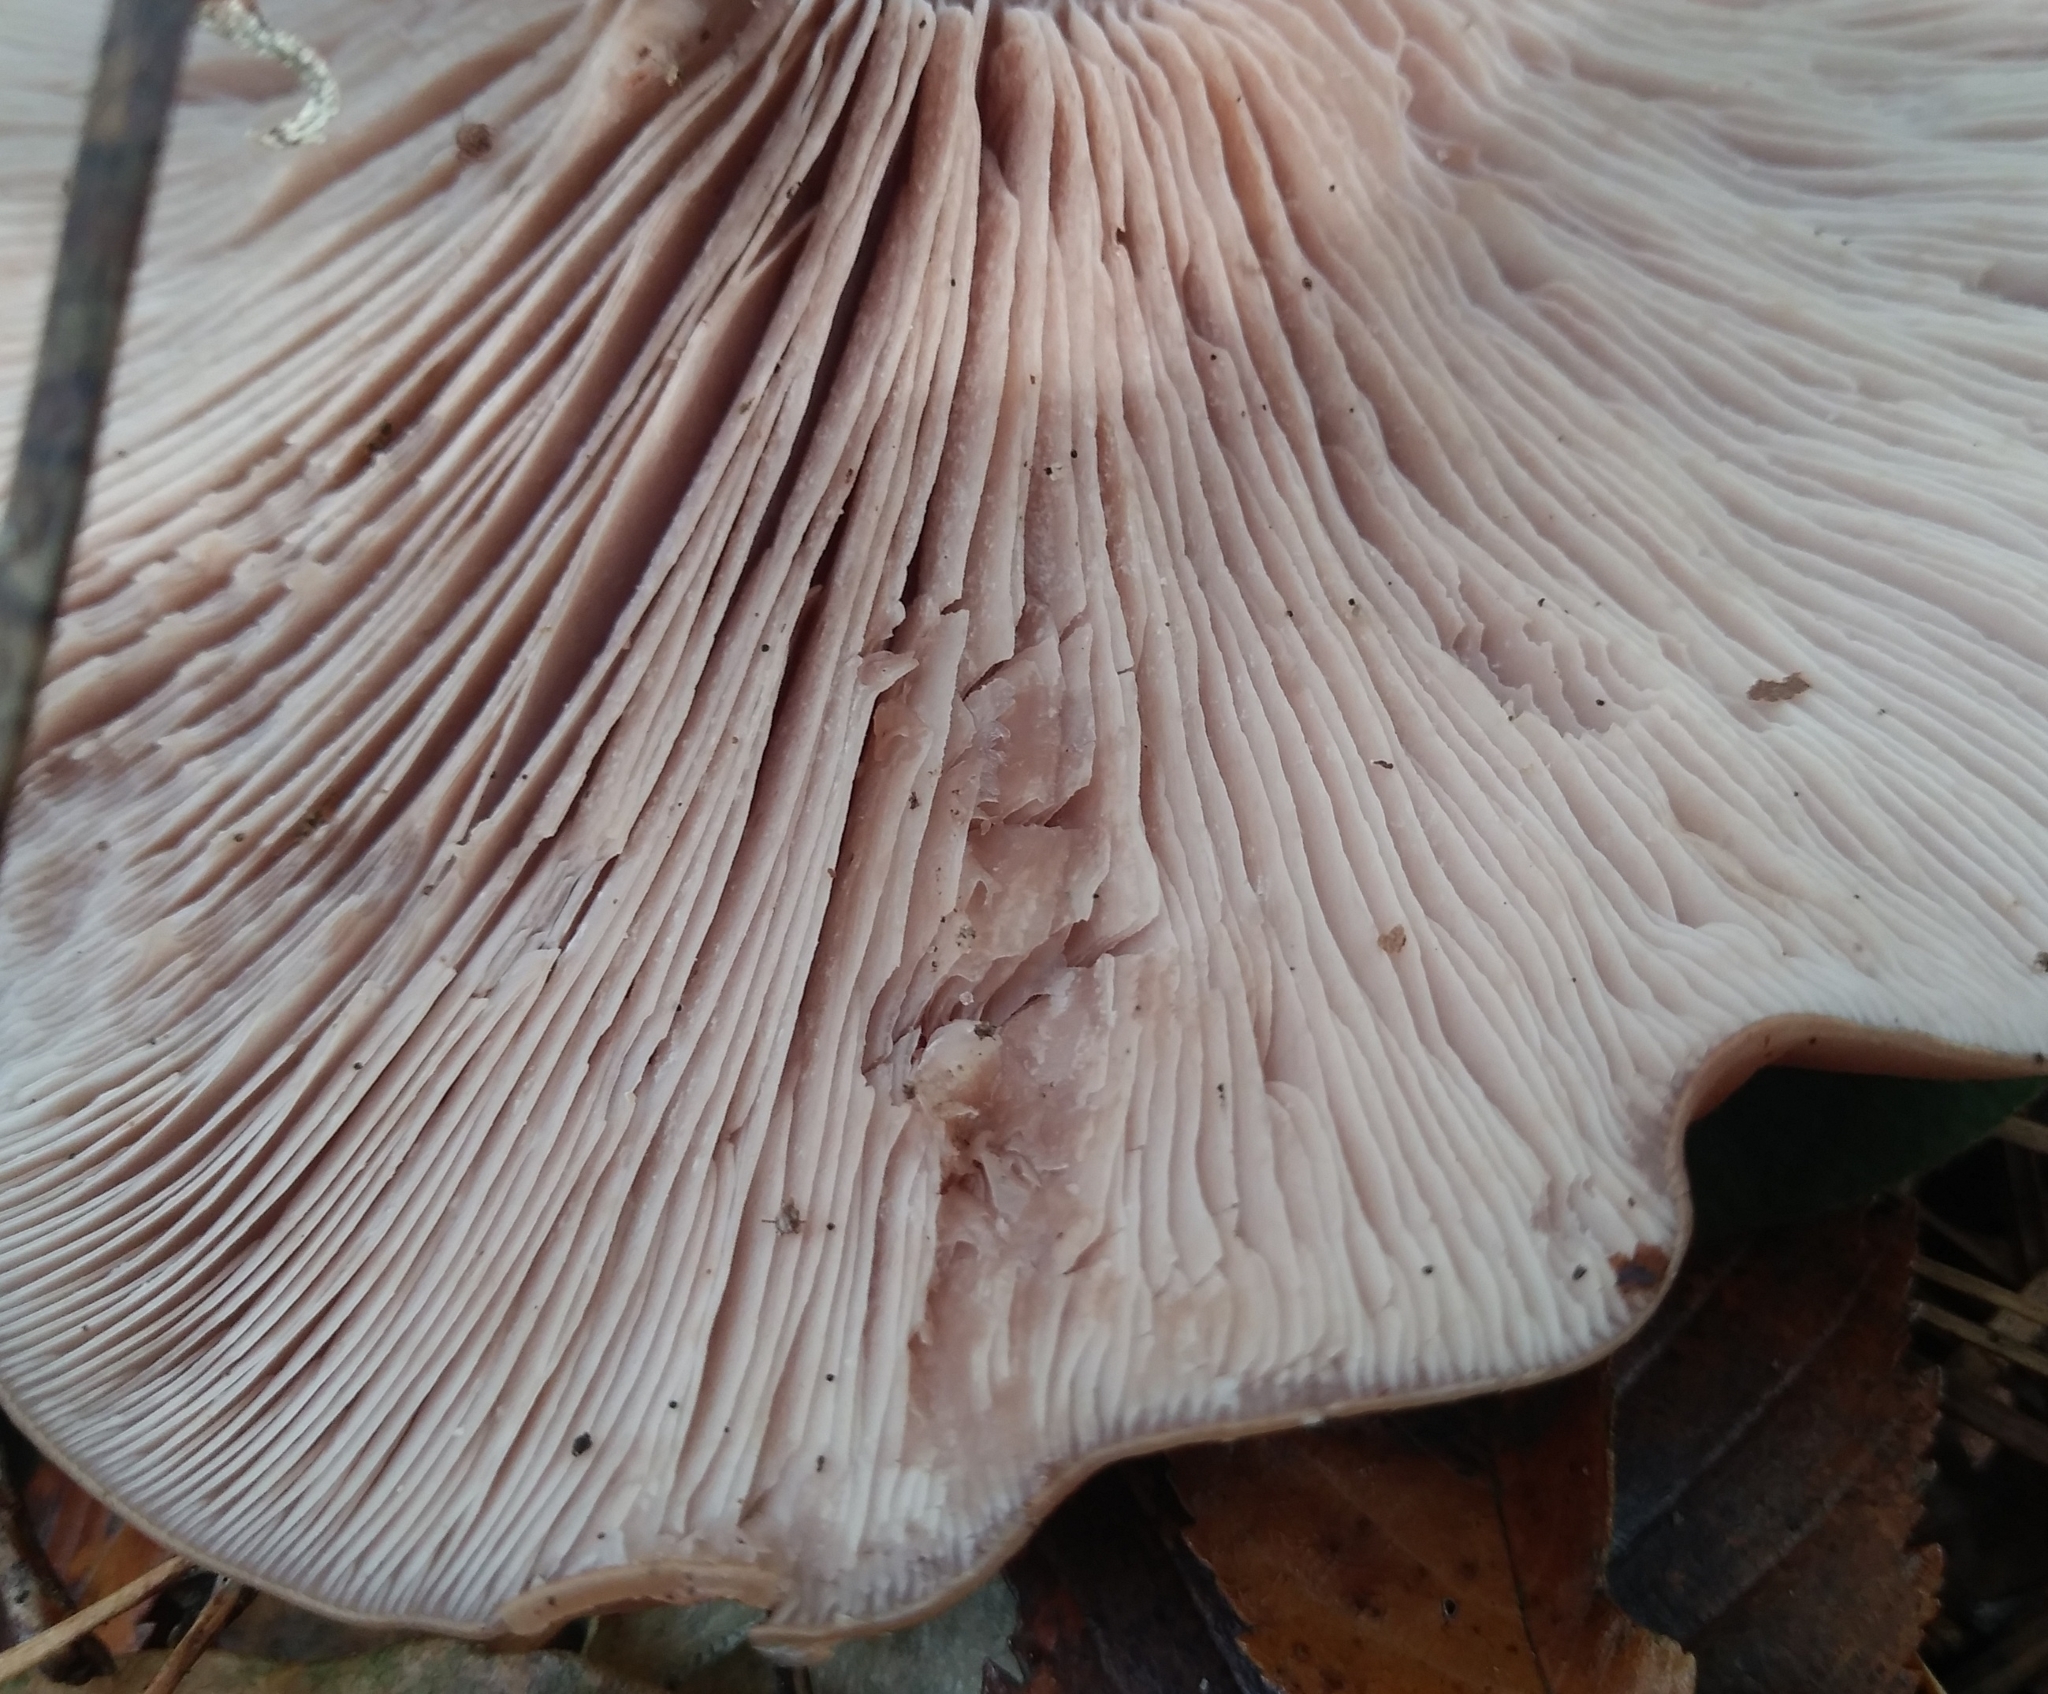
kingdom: Fungi
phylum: Basidiomycota
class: Agaricomycetes
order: Agaricales
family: Tricholomataceae
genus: Collybia
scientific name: Collybia
